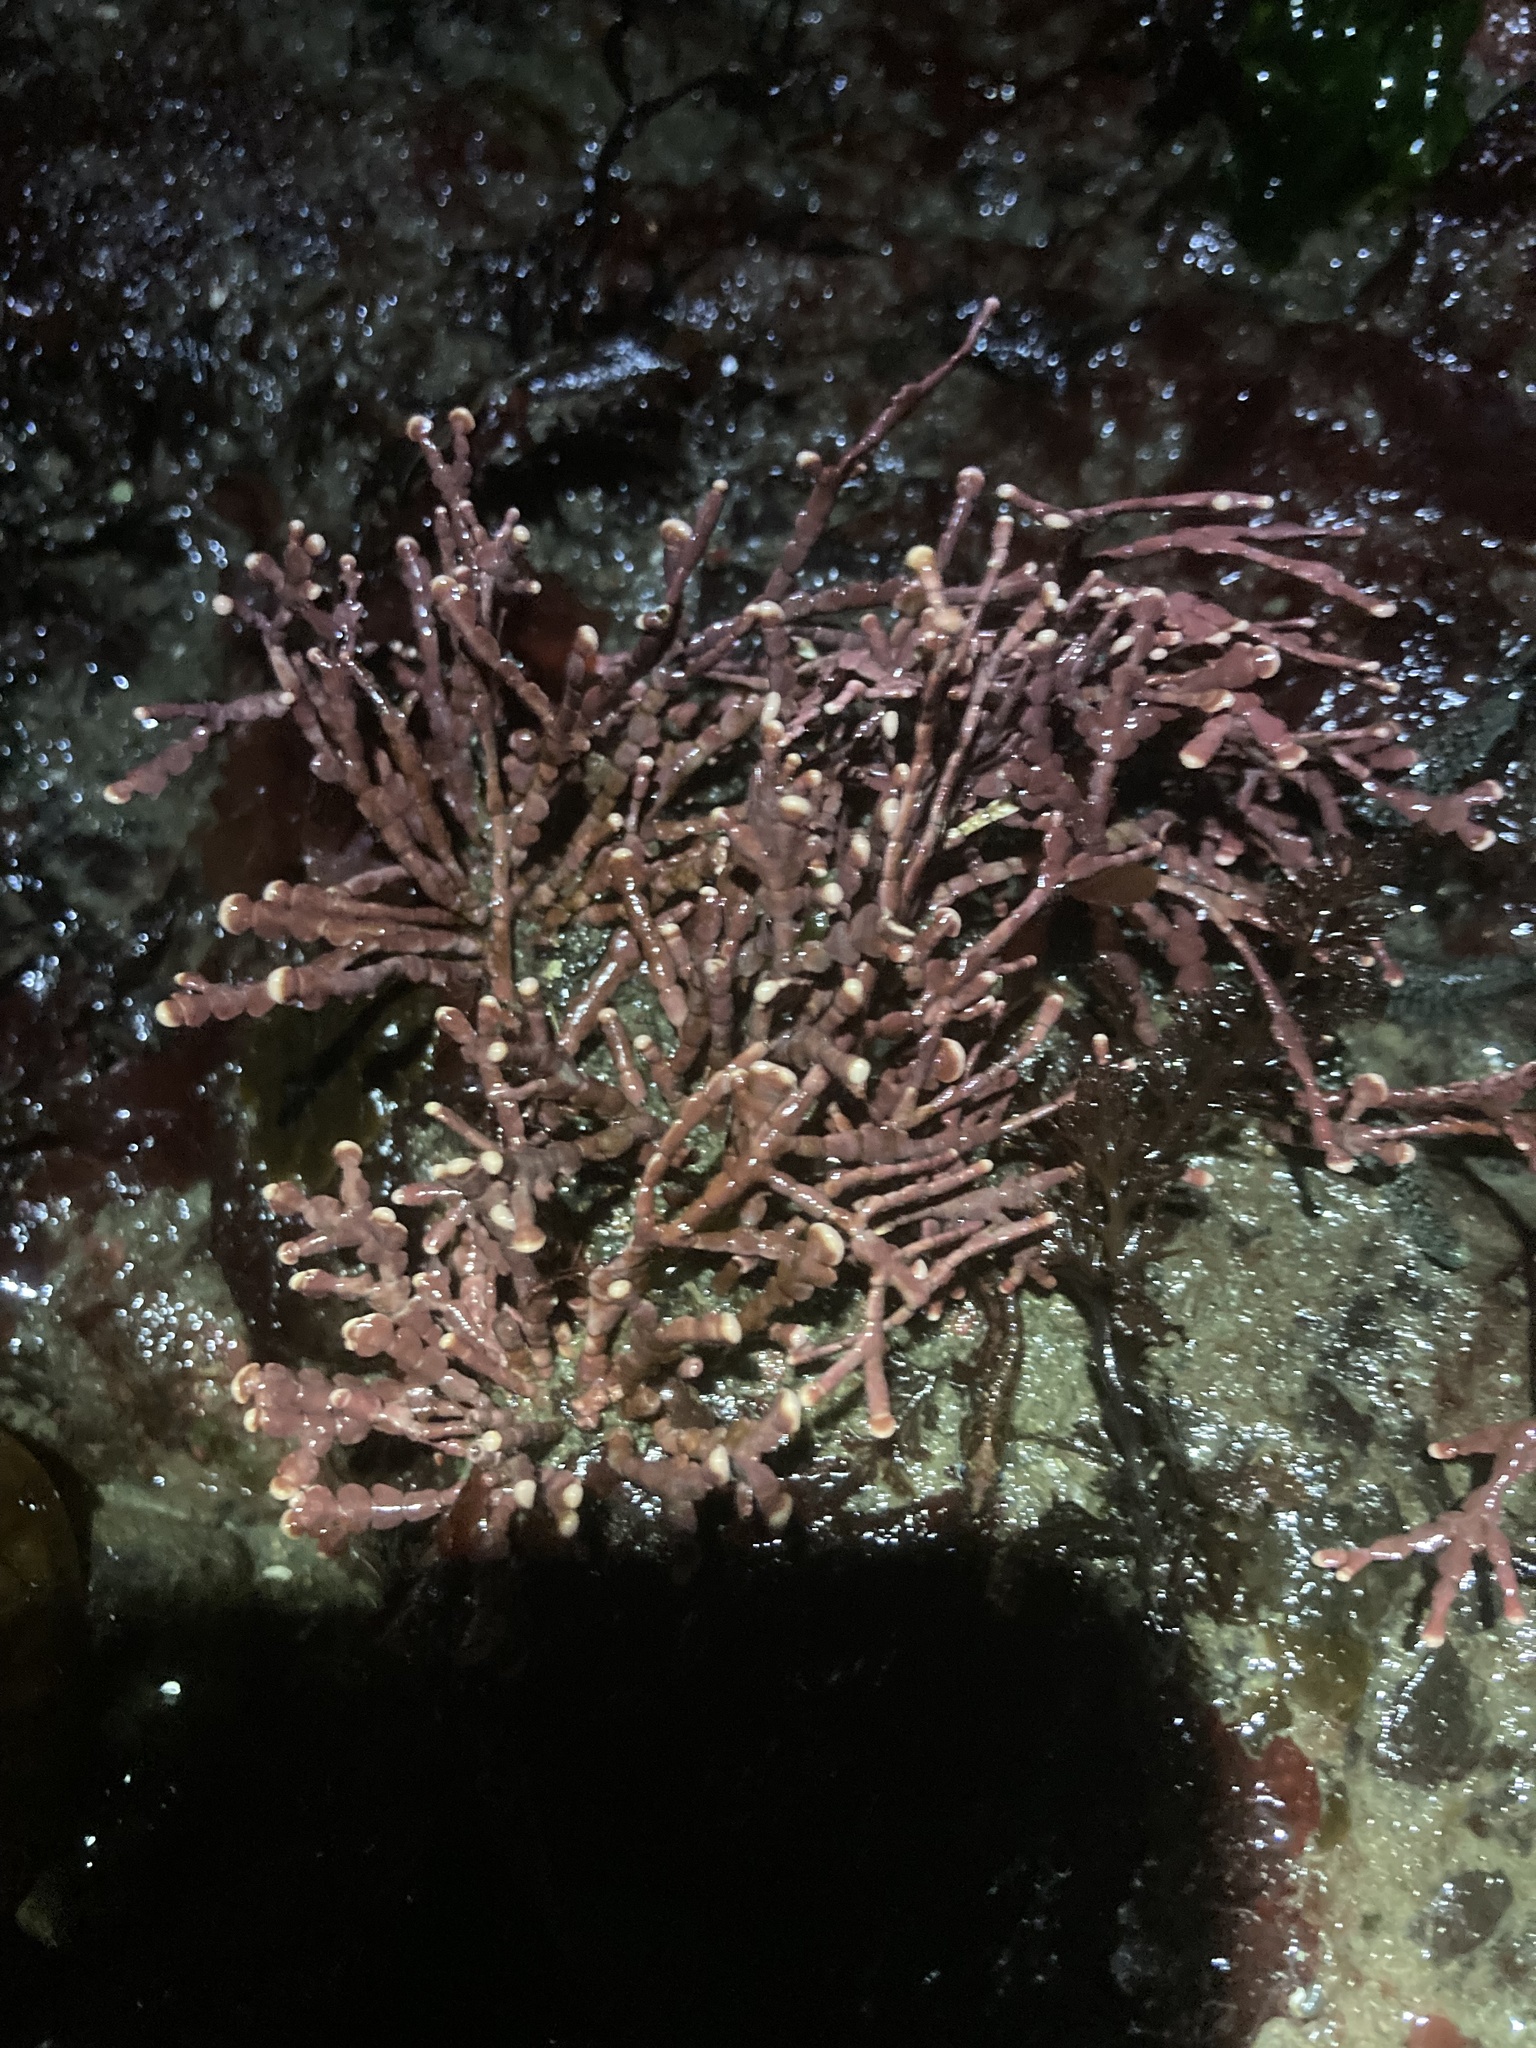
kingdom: Plantae
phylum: Rhodophyta
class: Florideophyceae
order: Corallinales
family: Corallinaceae
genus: Calliarthron
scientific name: Calliarthron tuberculosum
